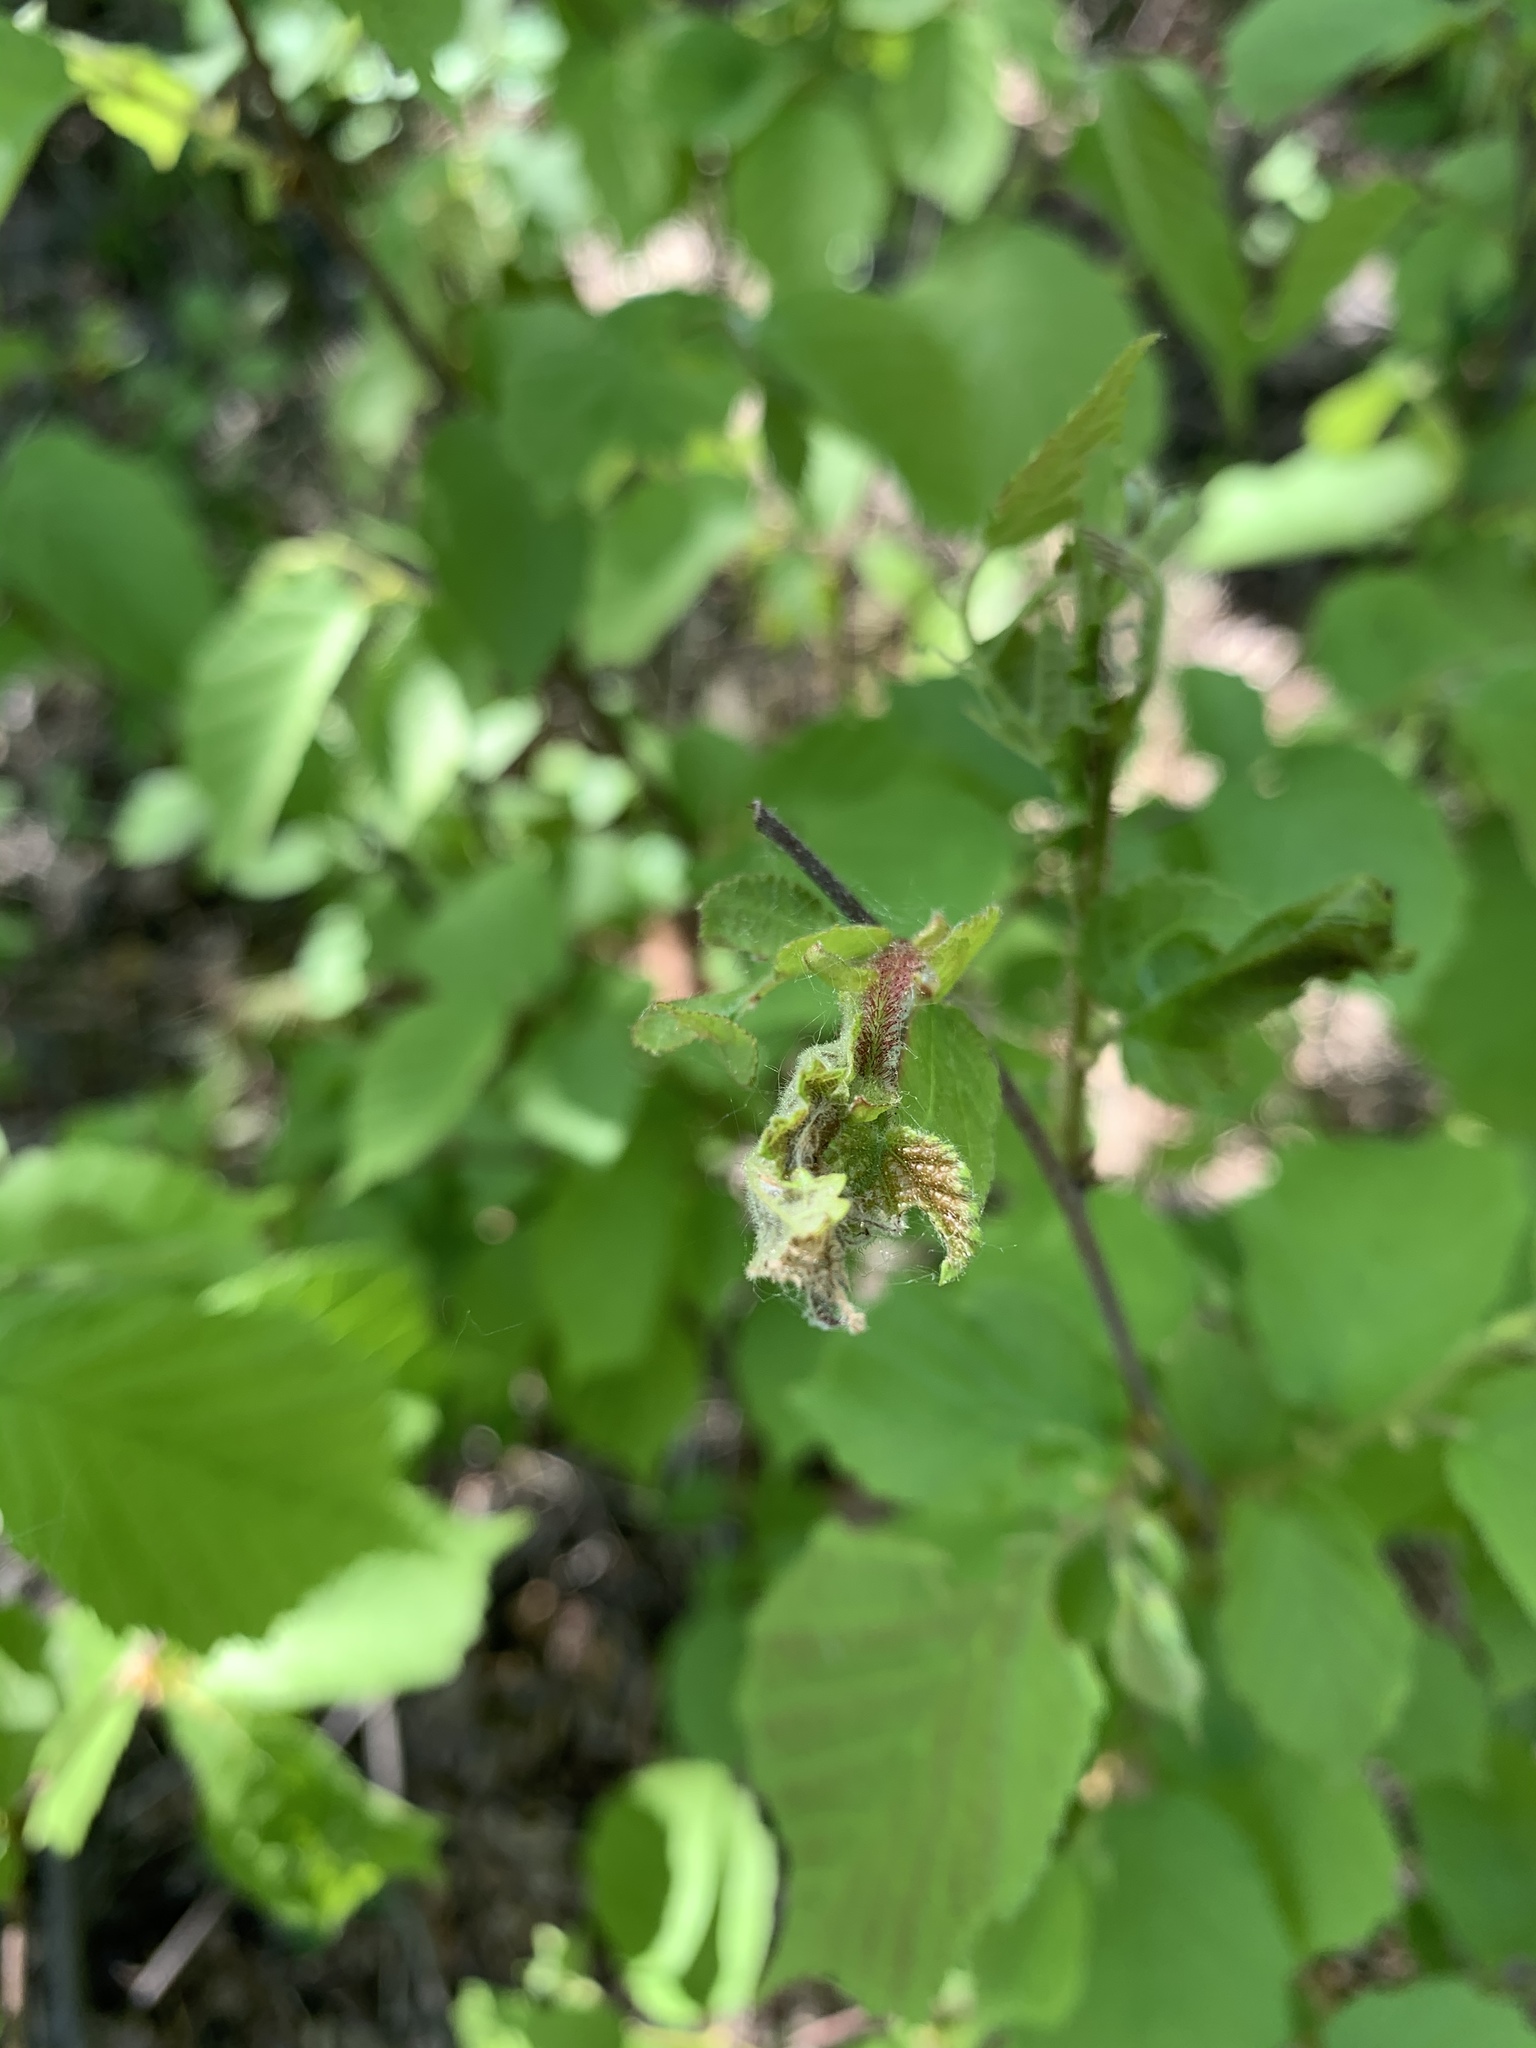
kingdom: Plantae
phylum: Tracheophyta
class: Magnoliopsida
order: Fagales
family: Betulaceae
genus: Corylus
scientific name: Corylus americana
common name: American hazel
